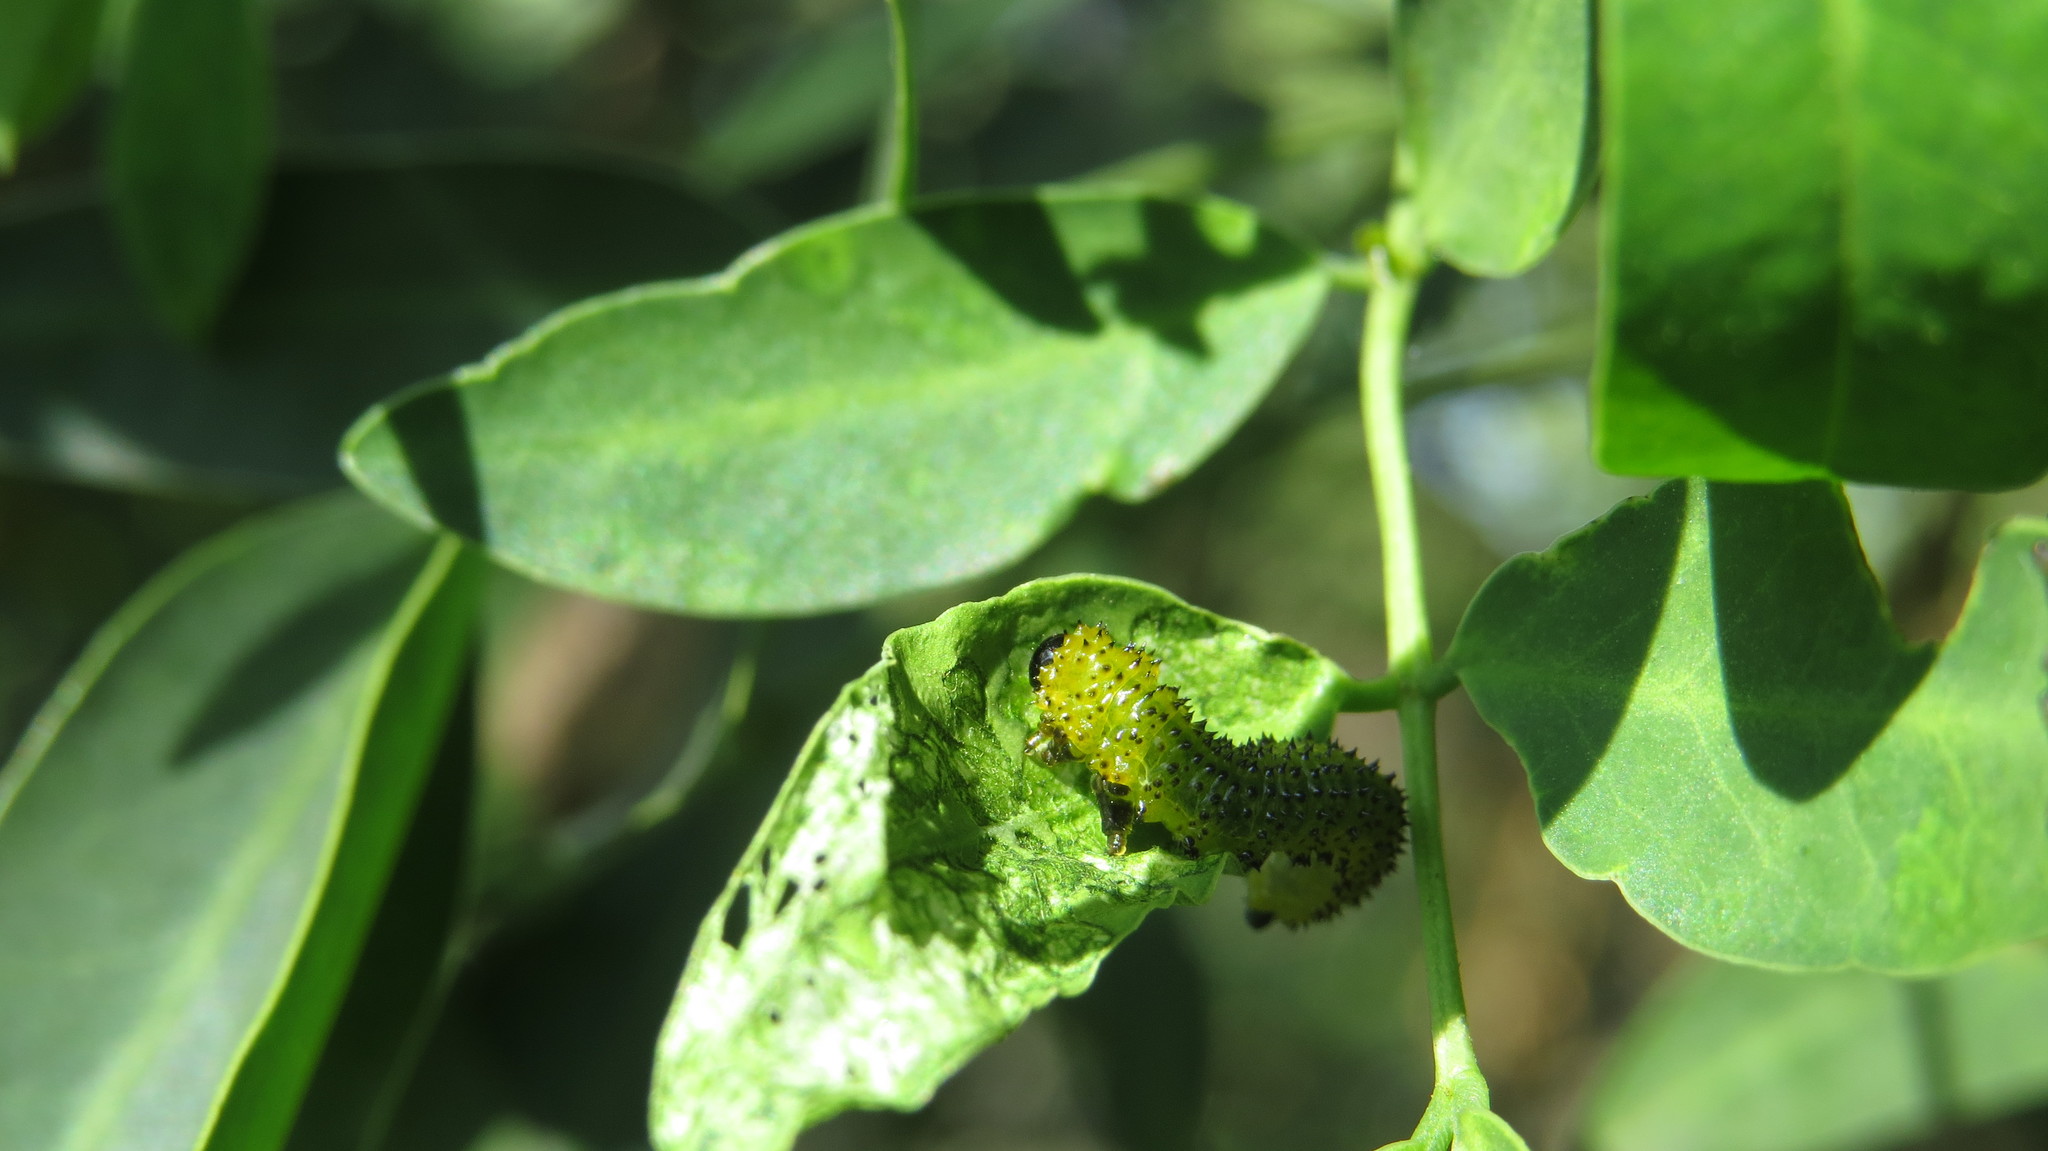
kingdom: Animalia
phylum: Arthropoda
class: Insecta
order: Hymenoptera
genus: Adurgoa
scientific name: Adurgoa
